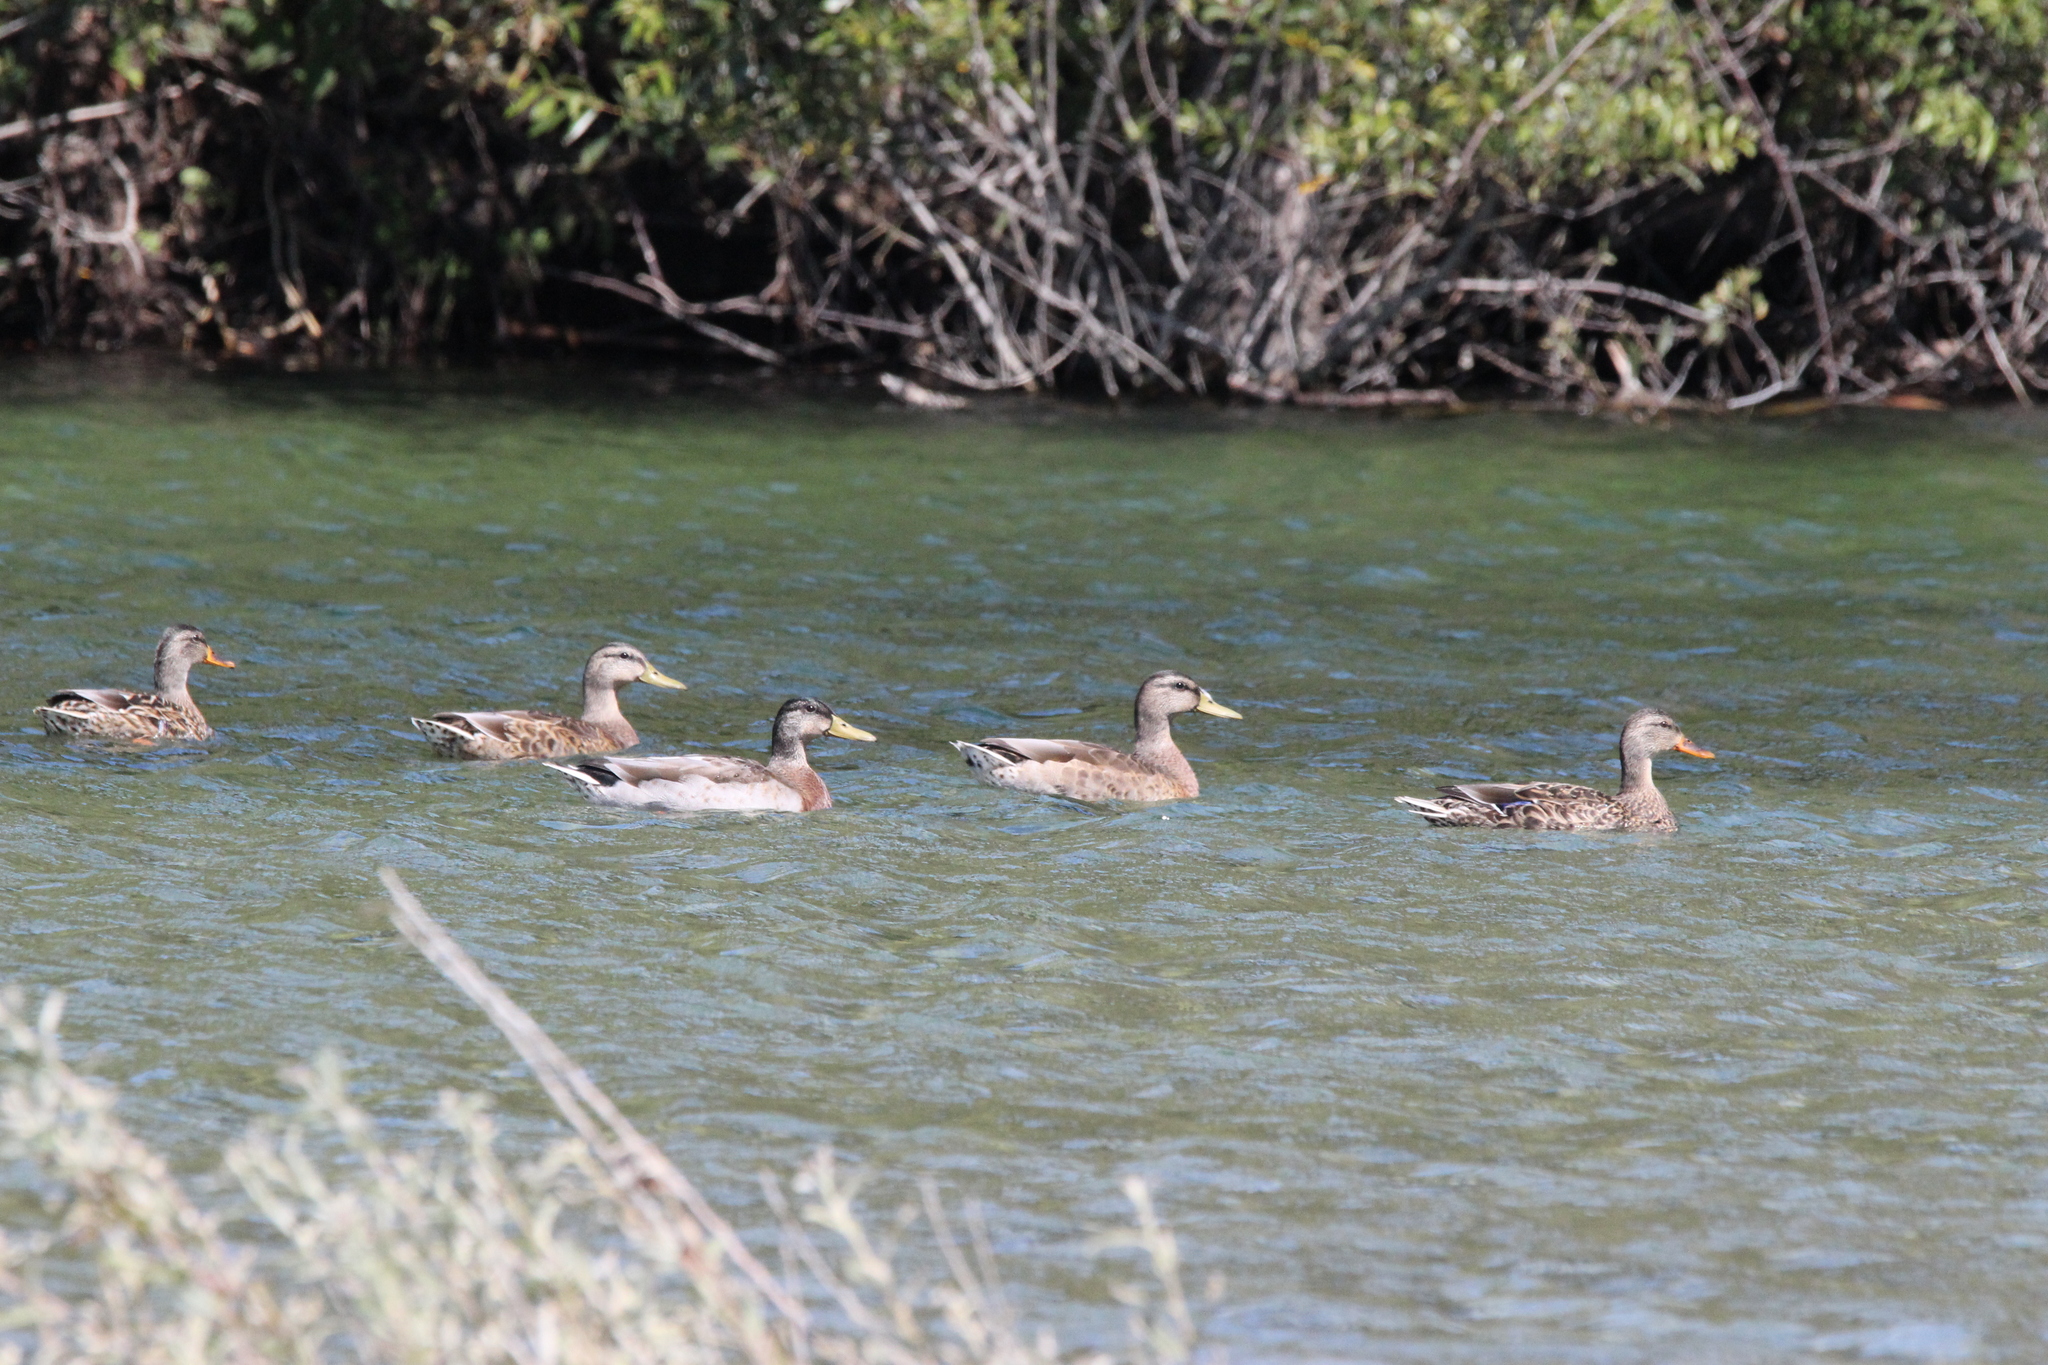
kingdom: Animalia
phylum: Chordata
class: Aves
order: Anseriformes
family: Anatidae
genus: Anas
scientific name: Anas platyrhynchos
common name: Mallard
